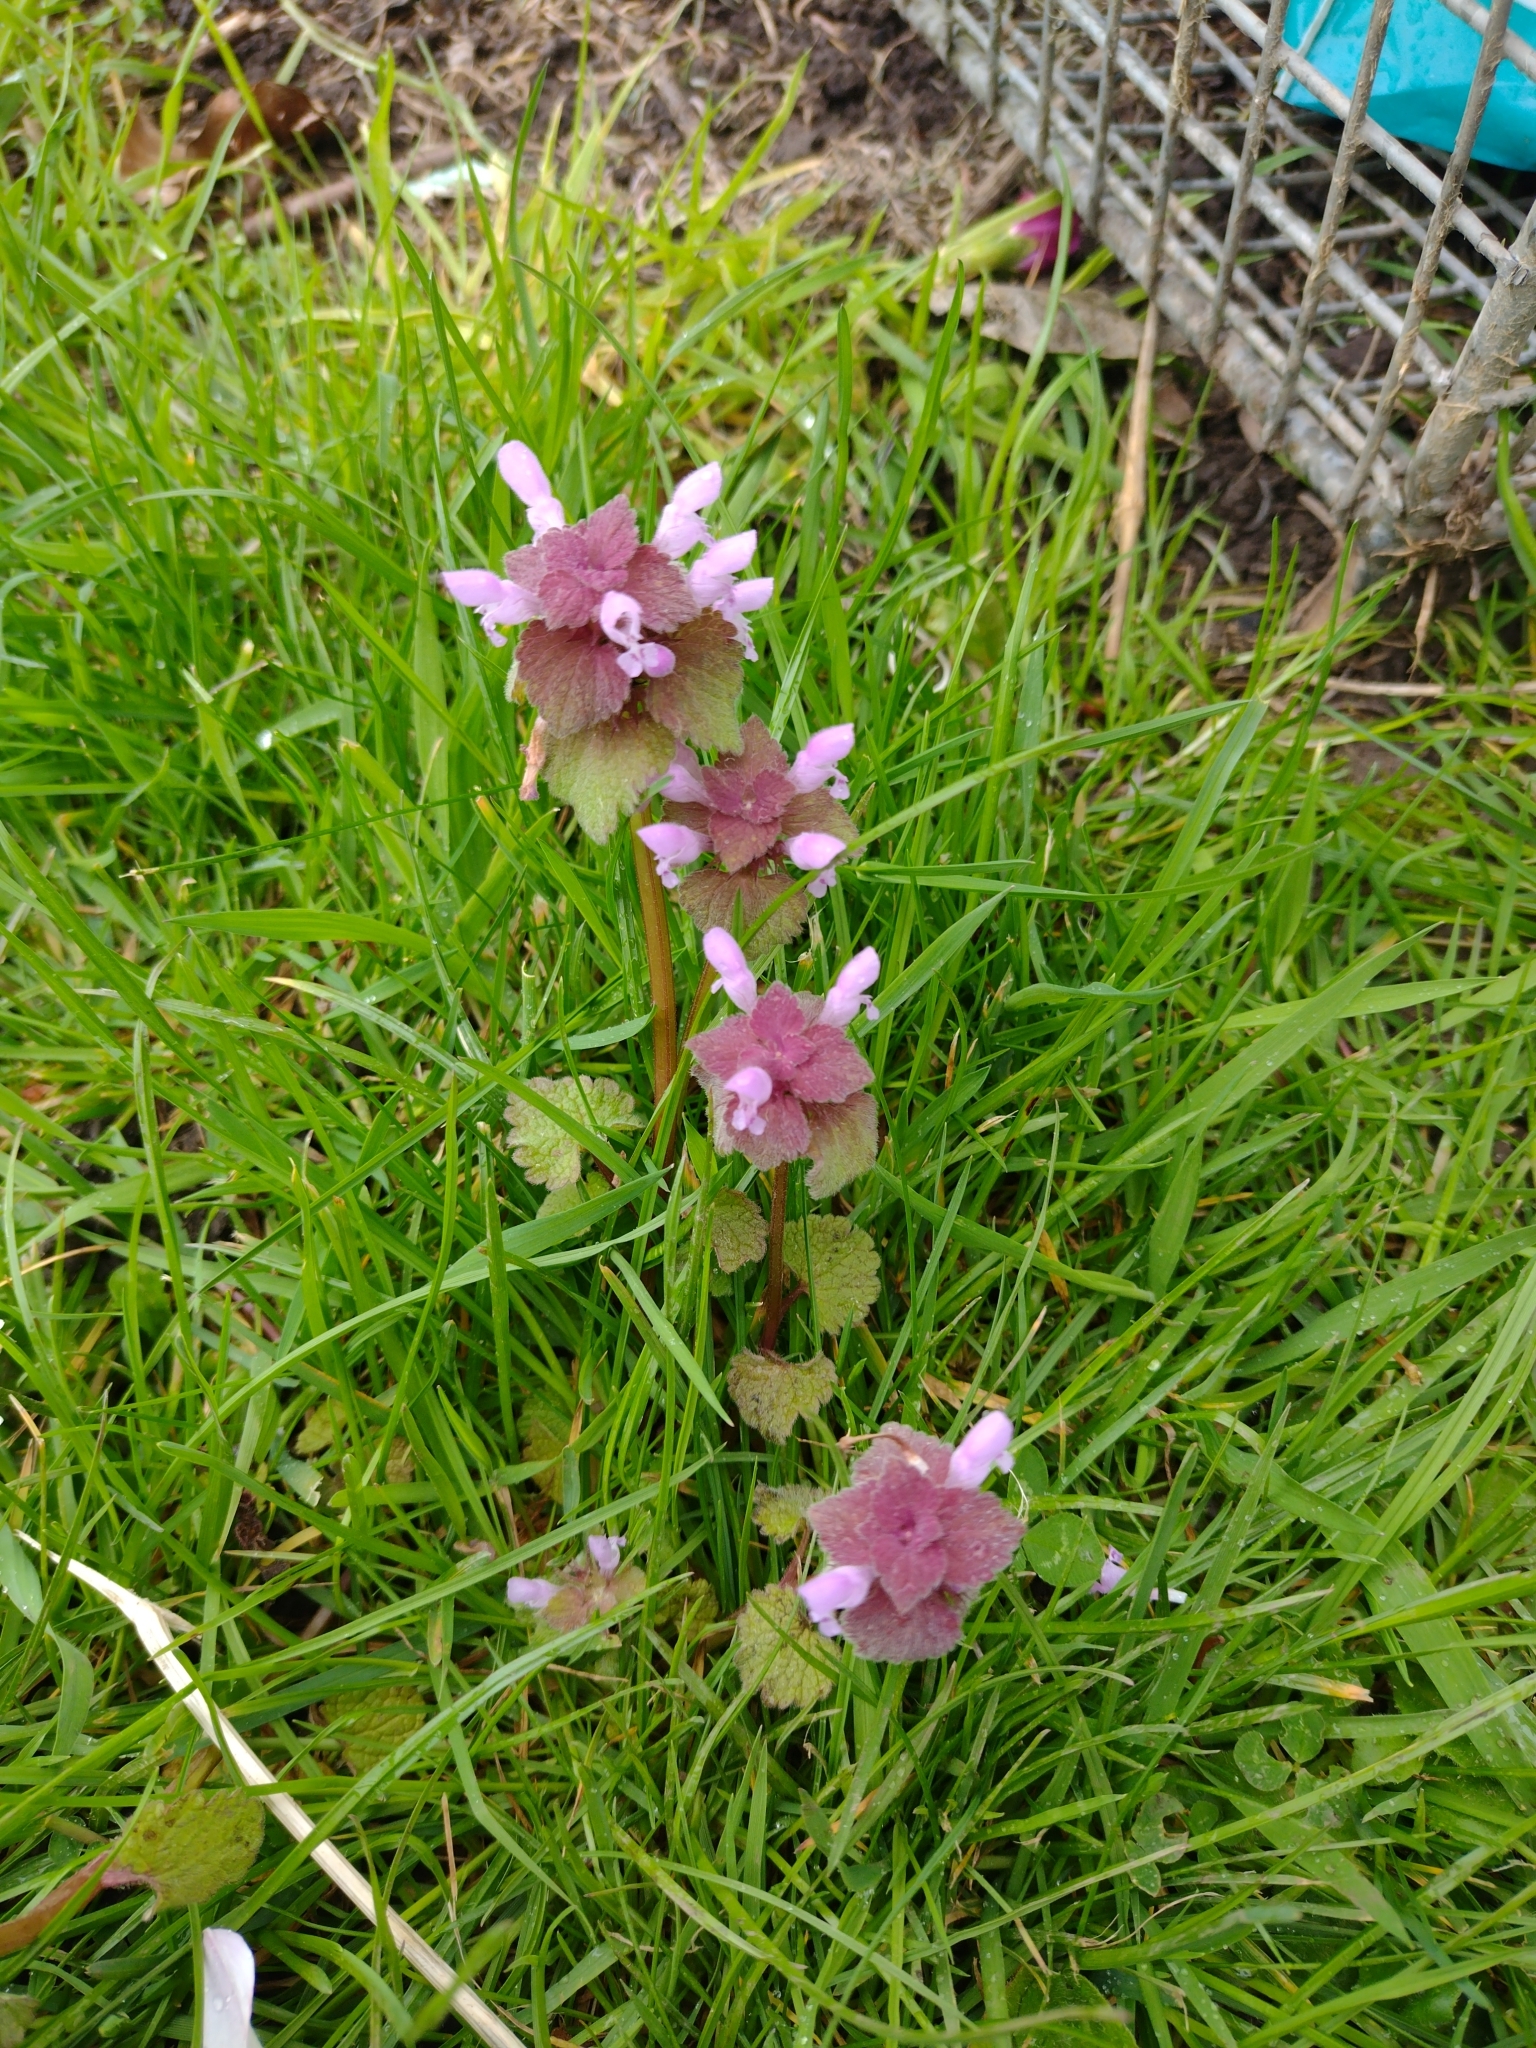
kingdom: Plantae
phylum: Tracheophyta
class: Magnoliopsida
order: Lamiales
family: Lamiaceae
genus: Lamium
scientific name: Lamium purpureum
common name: Red dead-nettle
